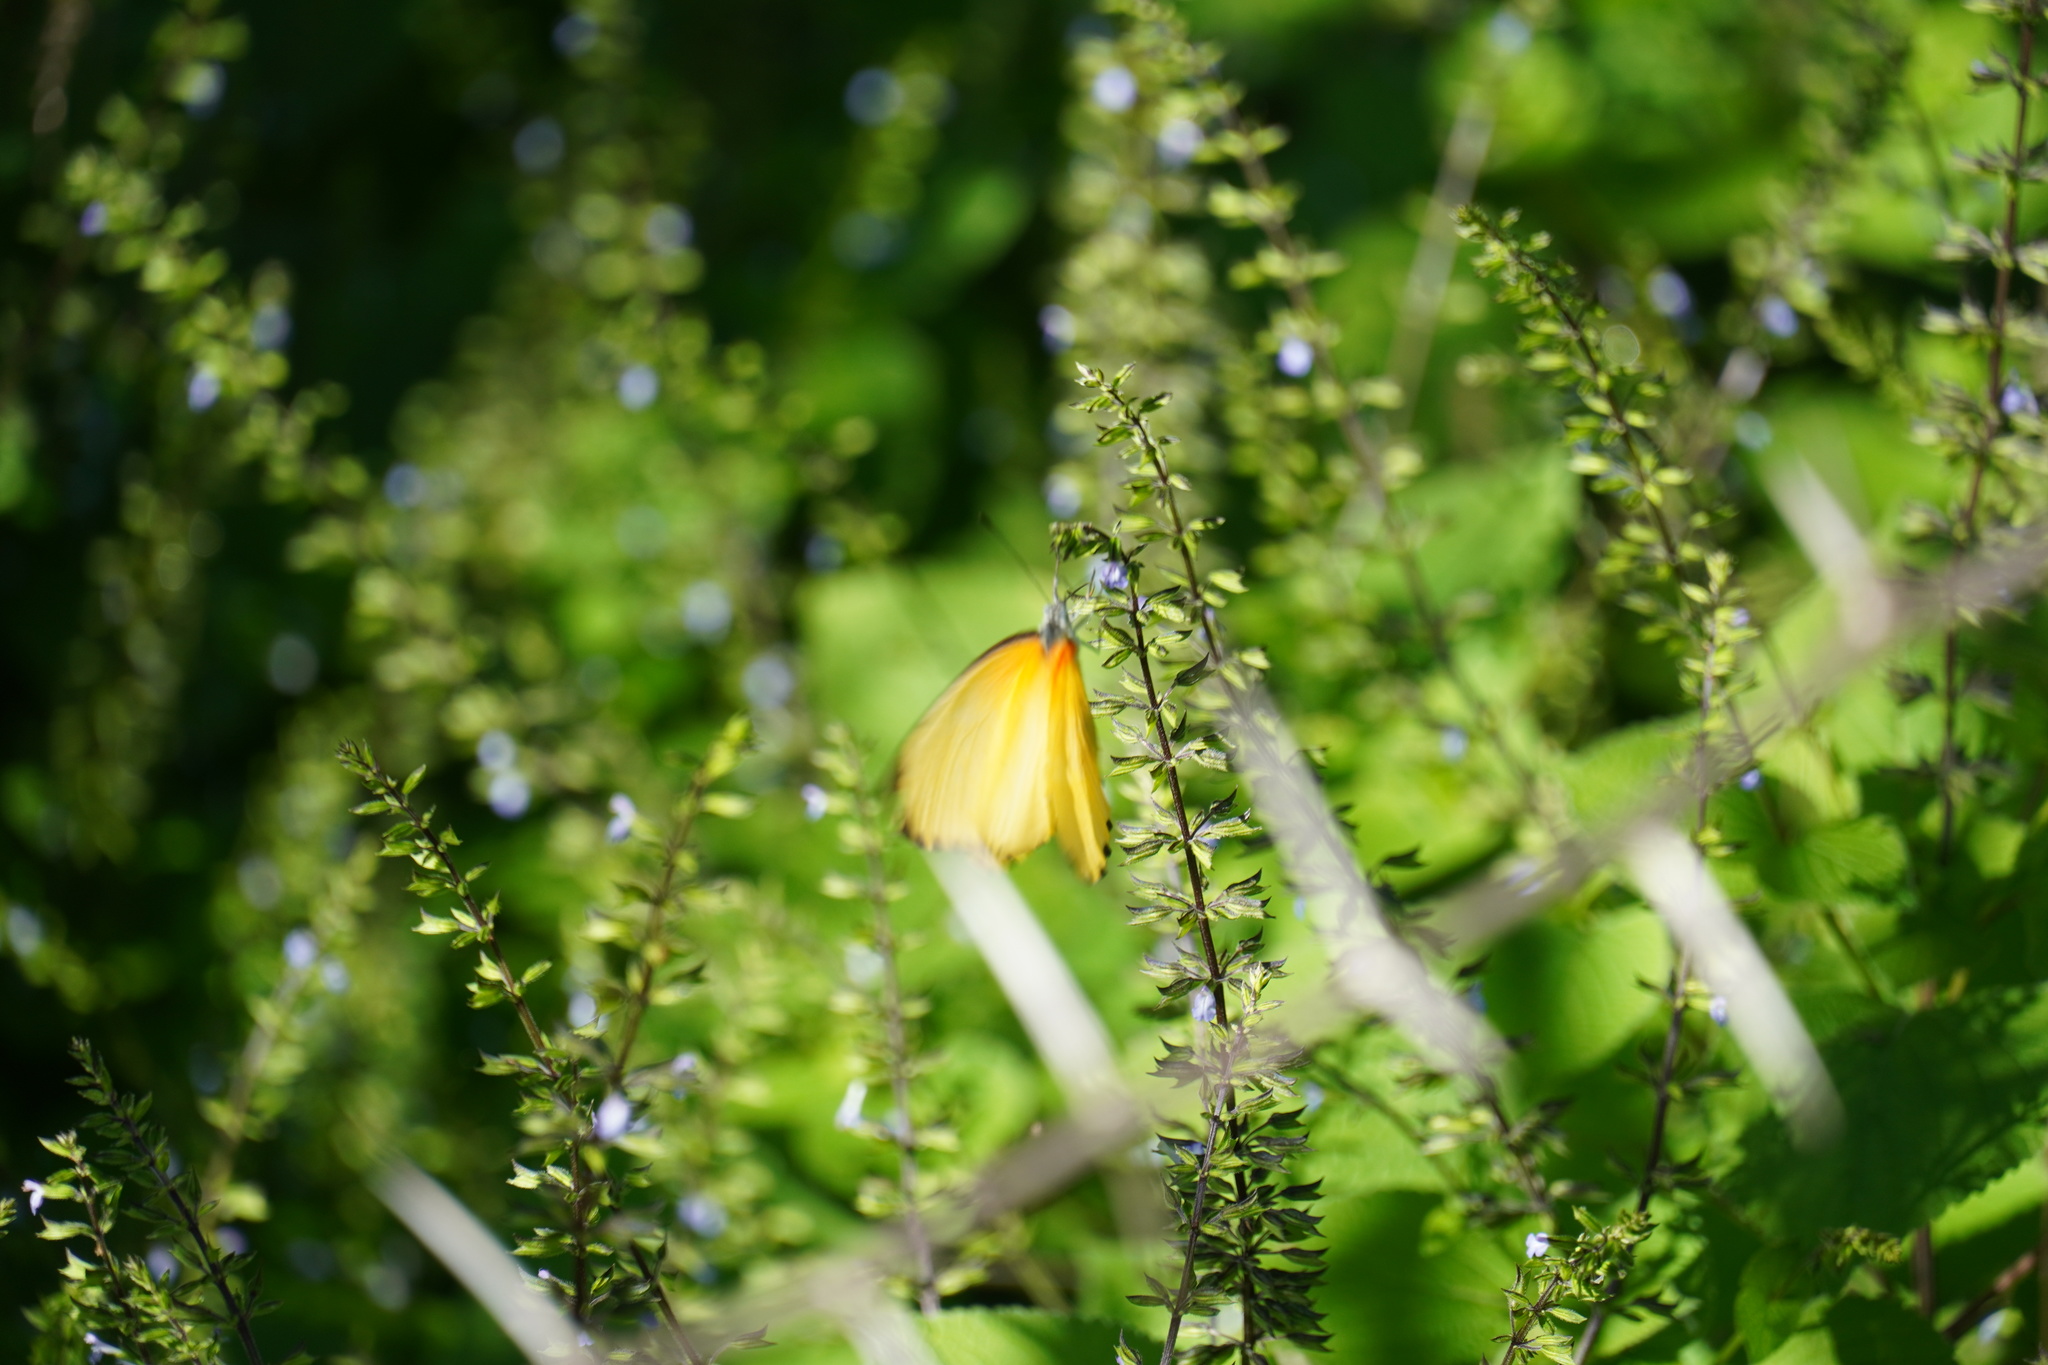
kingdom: Animalia
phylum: Arthropoda
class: Insecta
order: Lepidoptera
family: Pieridae
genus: Mylothris
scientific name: Mylothris agathina
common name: Eastern dotted border
